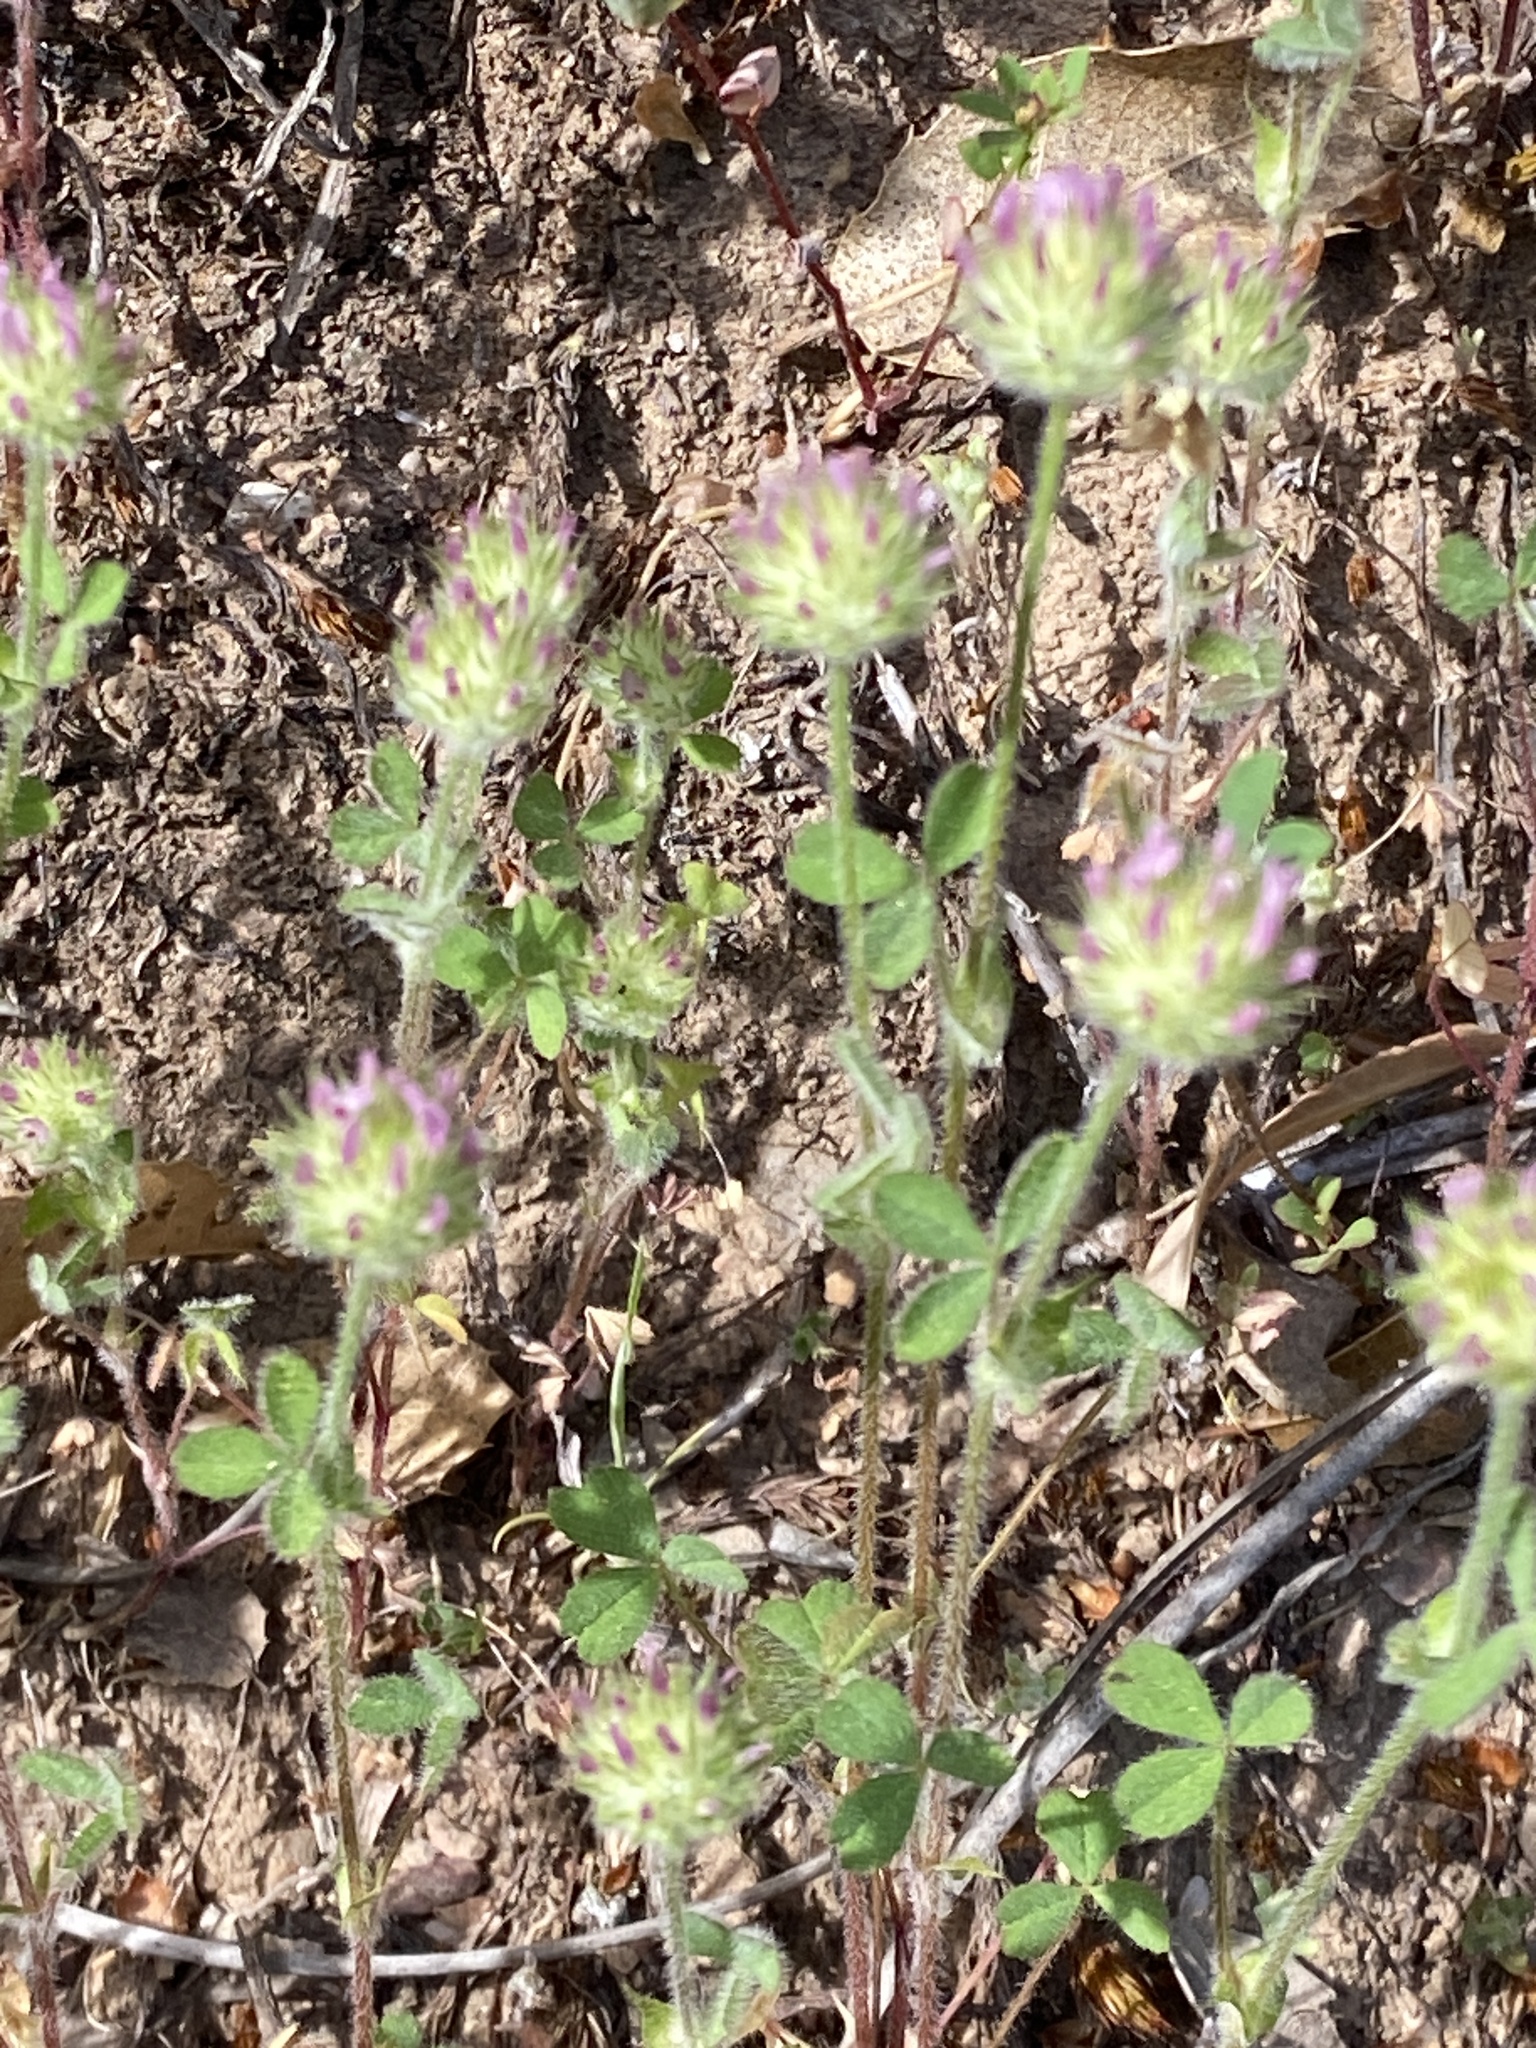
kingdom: Plantae
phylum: Tracheophyta
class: Magnoliopsida
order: Fabales
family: Fabaceae
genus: Trifolium
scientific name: Trifolium microcephalum
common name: Maiden clover
